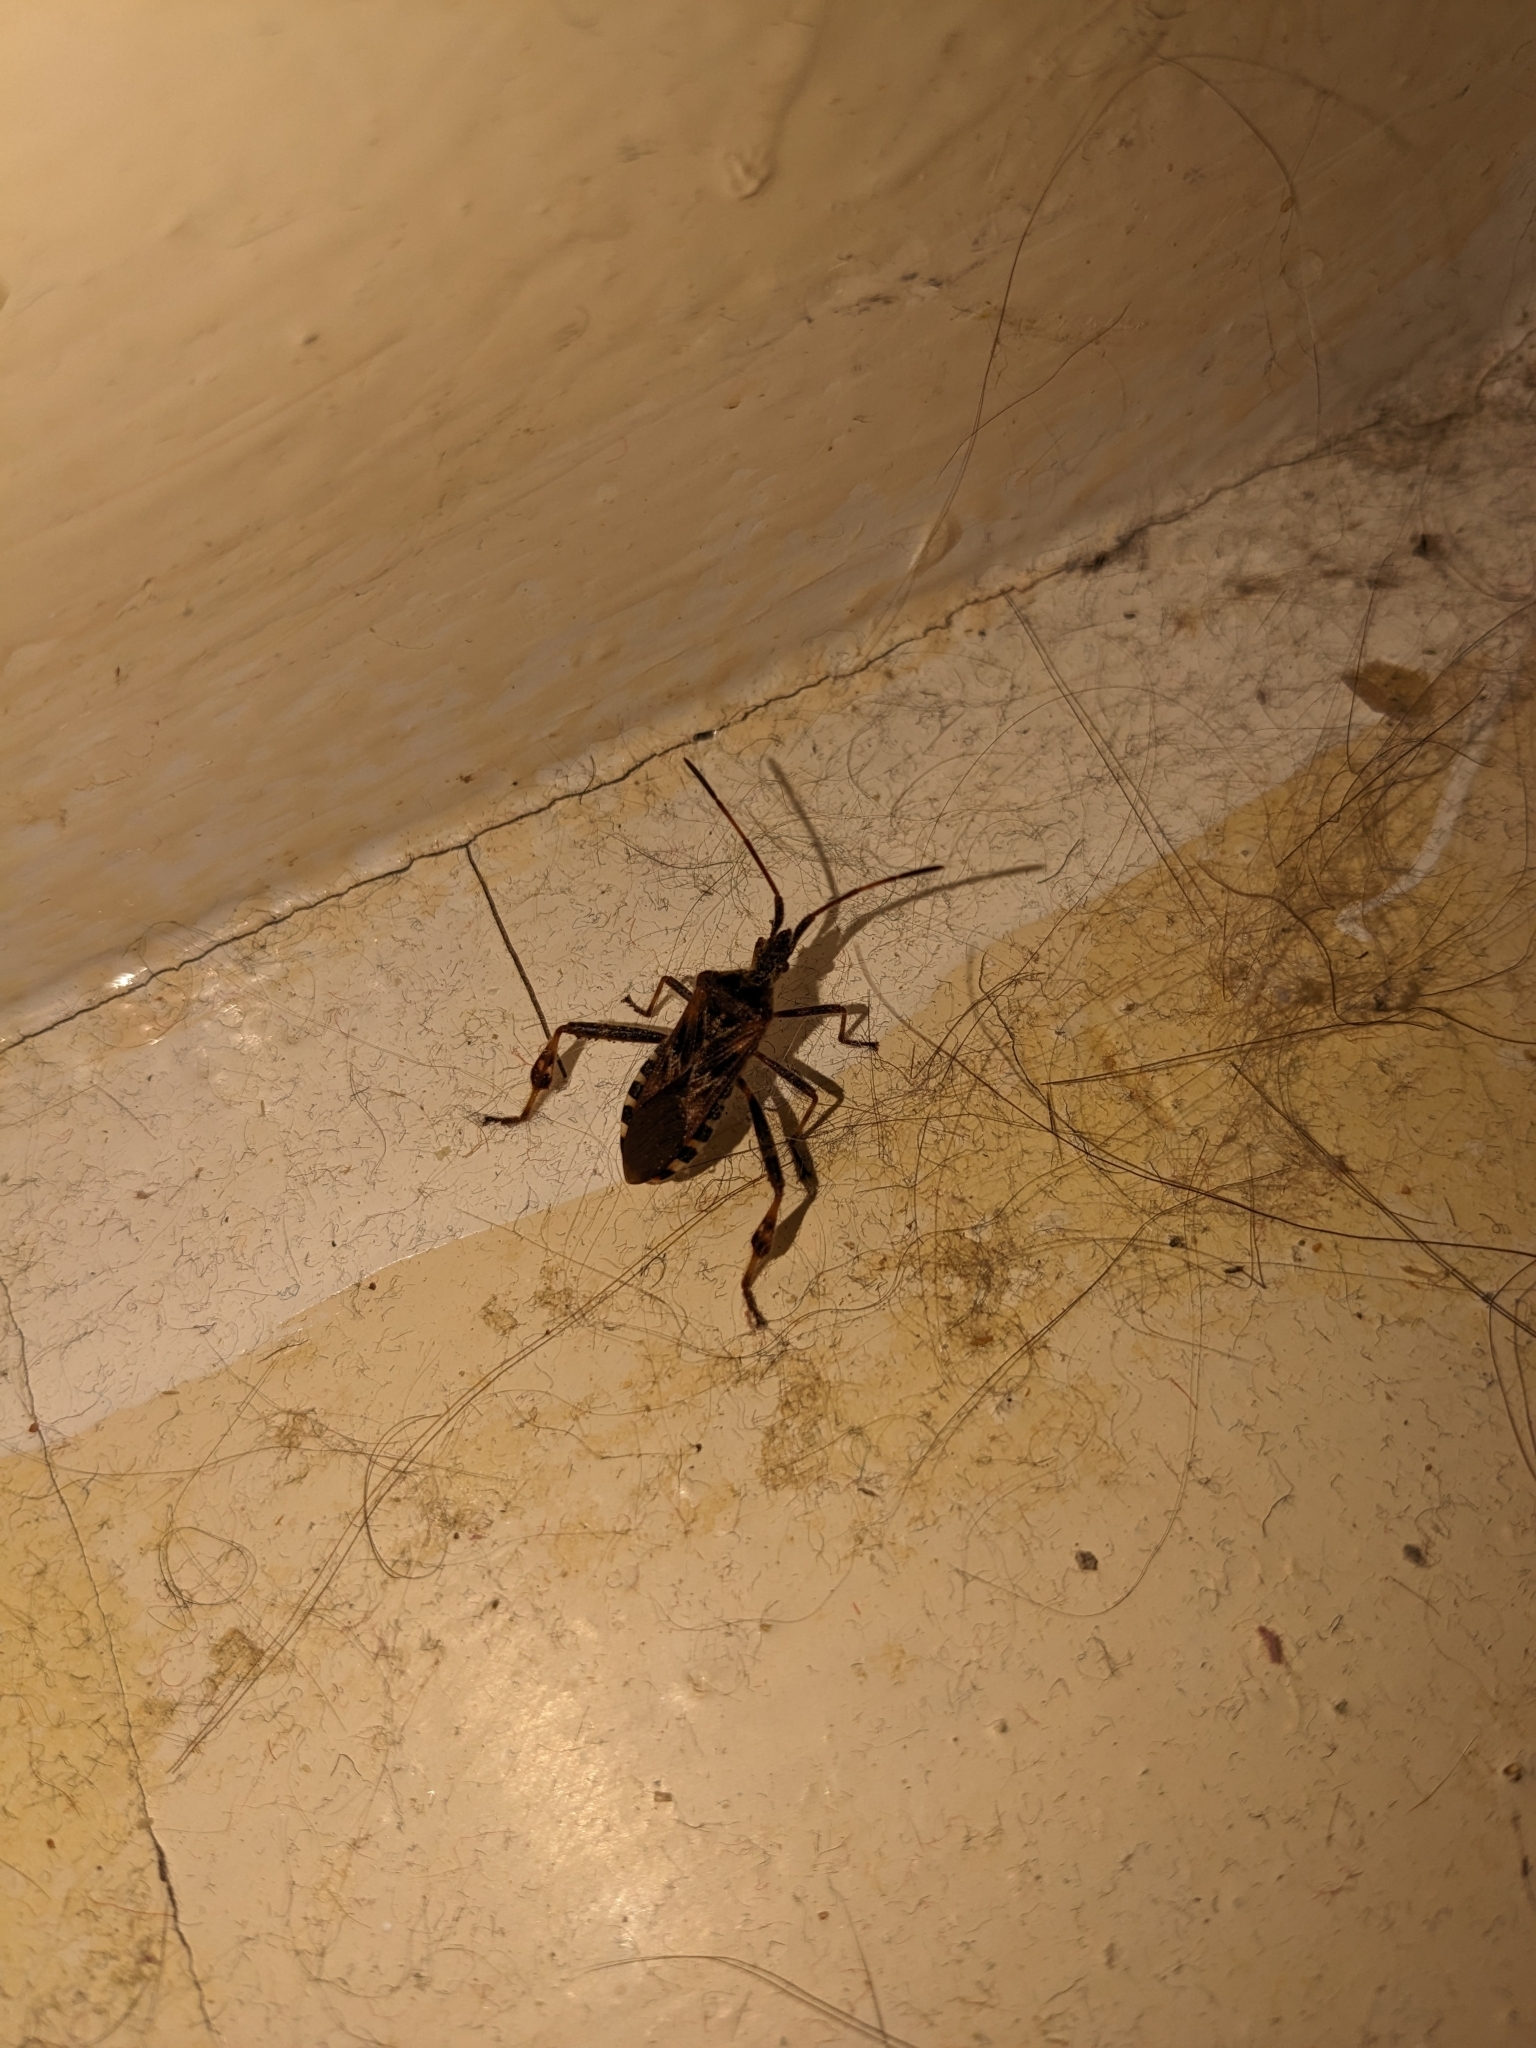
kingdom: Animalia
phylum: Arthropoda
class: Insecta
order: Hemiptera
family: Coreidae
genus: Leptoglossus
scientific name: Leptoglossus occidentalis
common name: Western conifer-seed bug
